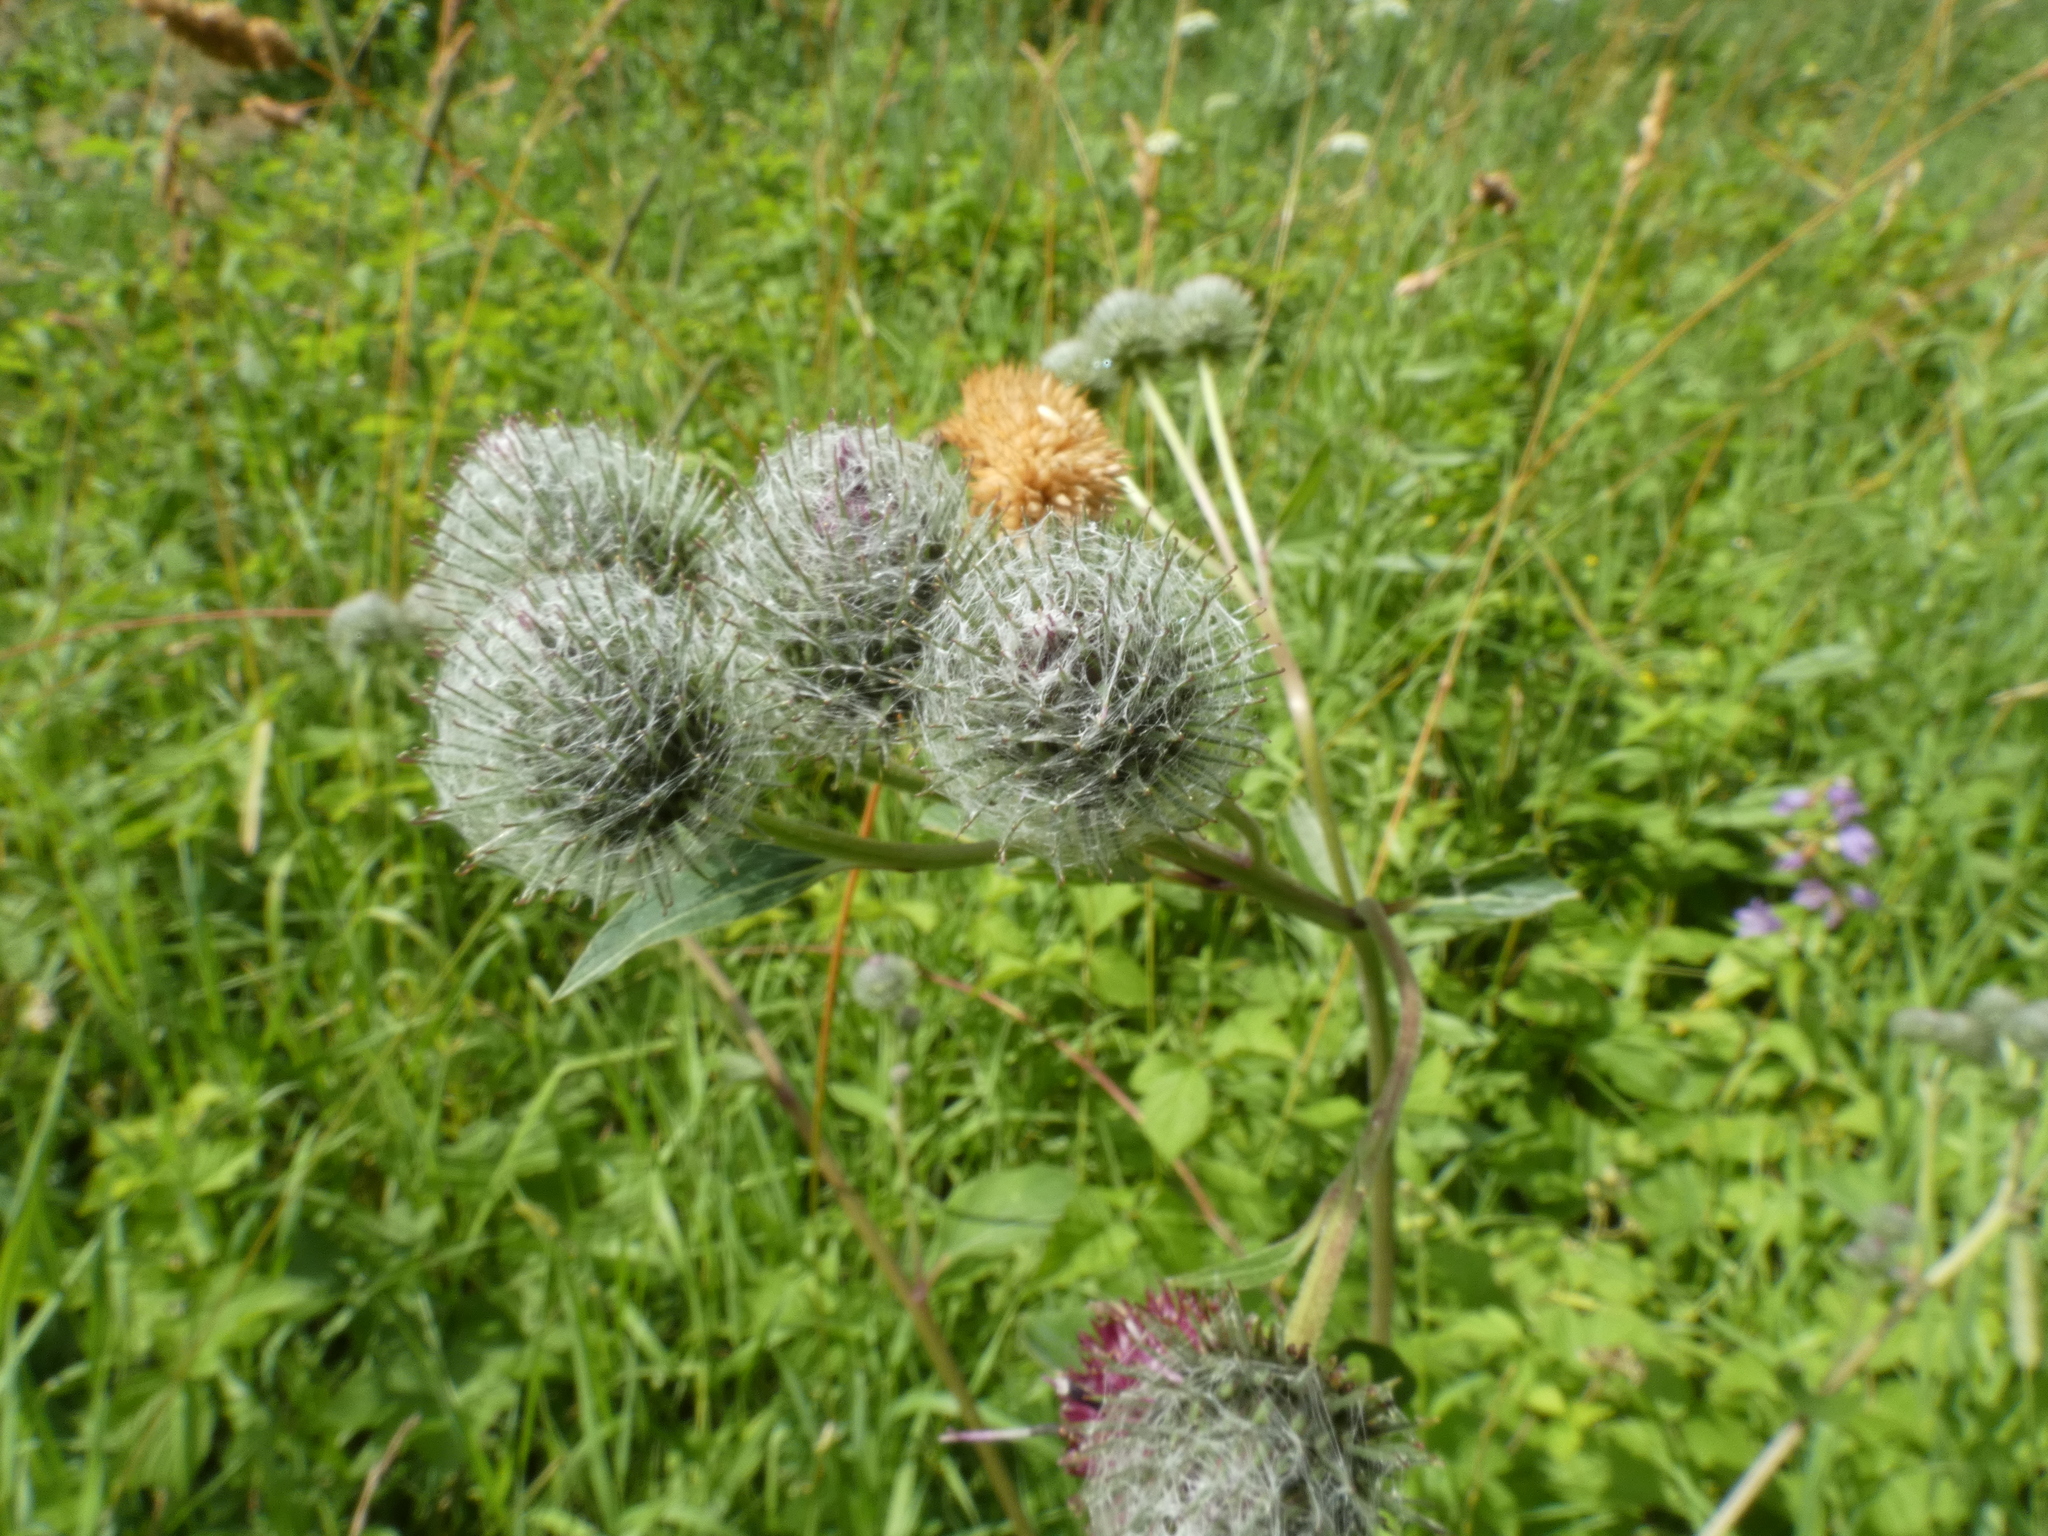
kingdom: Plantae
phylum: Tracheophyta
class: Magnoliopsida
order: Asterales
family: Asteraceae
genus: Arctium
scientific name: Arctium tomentosum
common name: Woolly burdock
